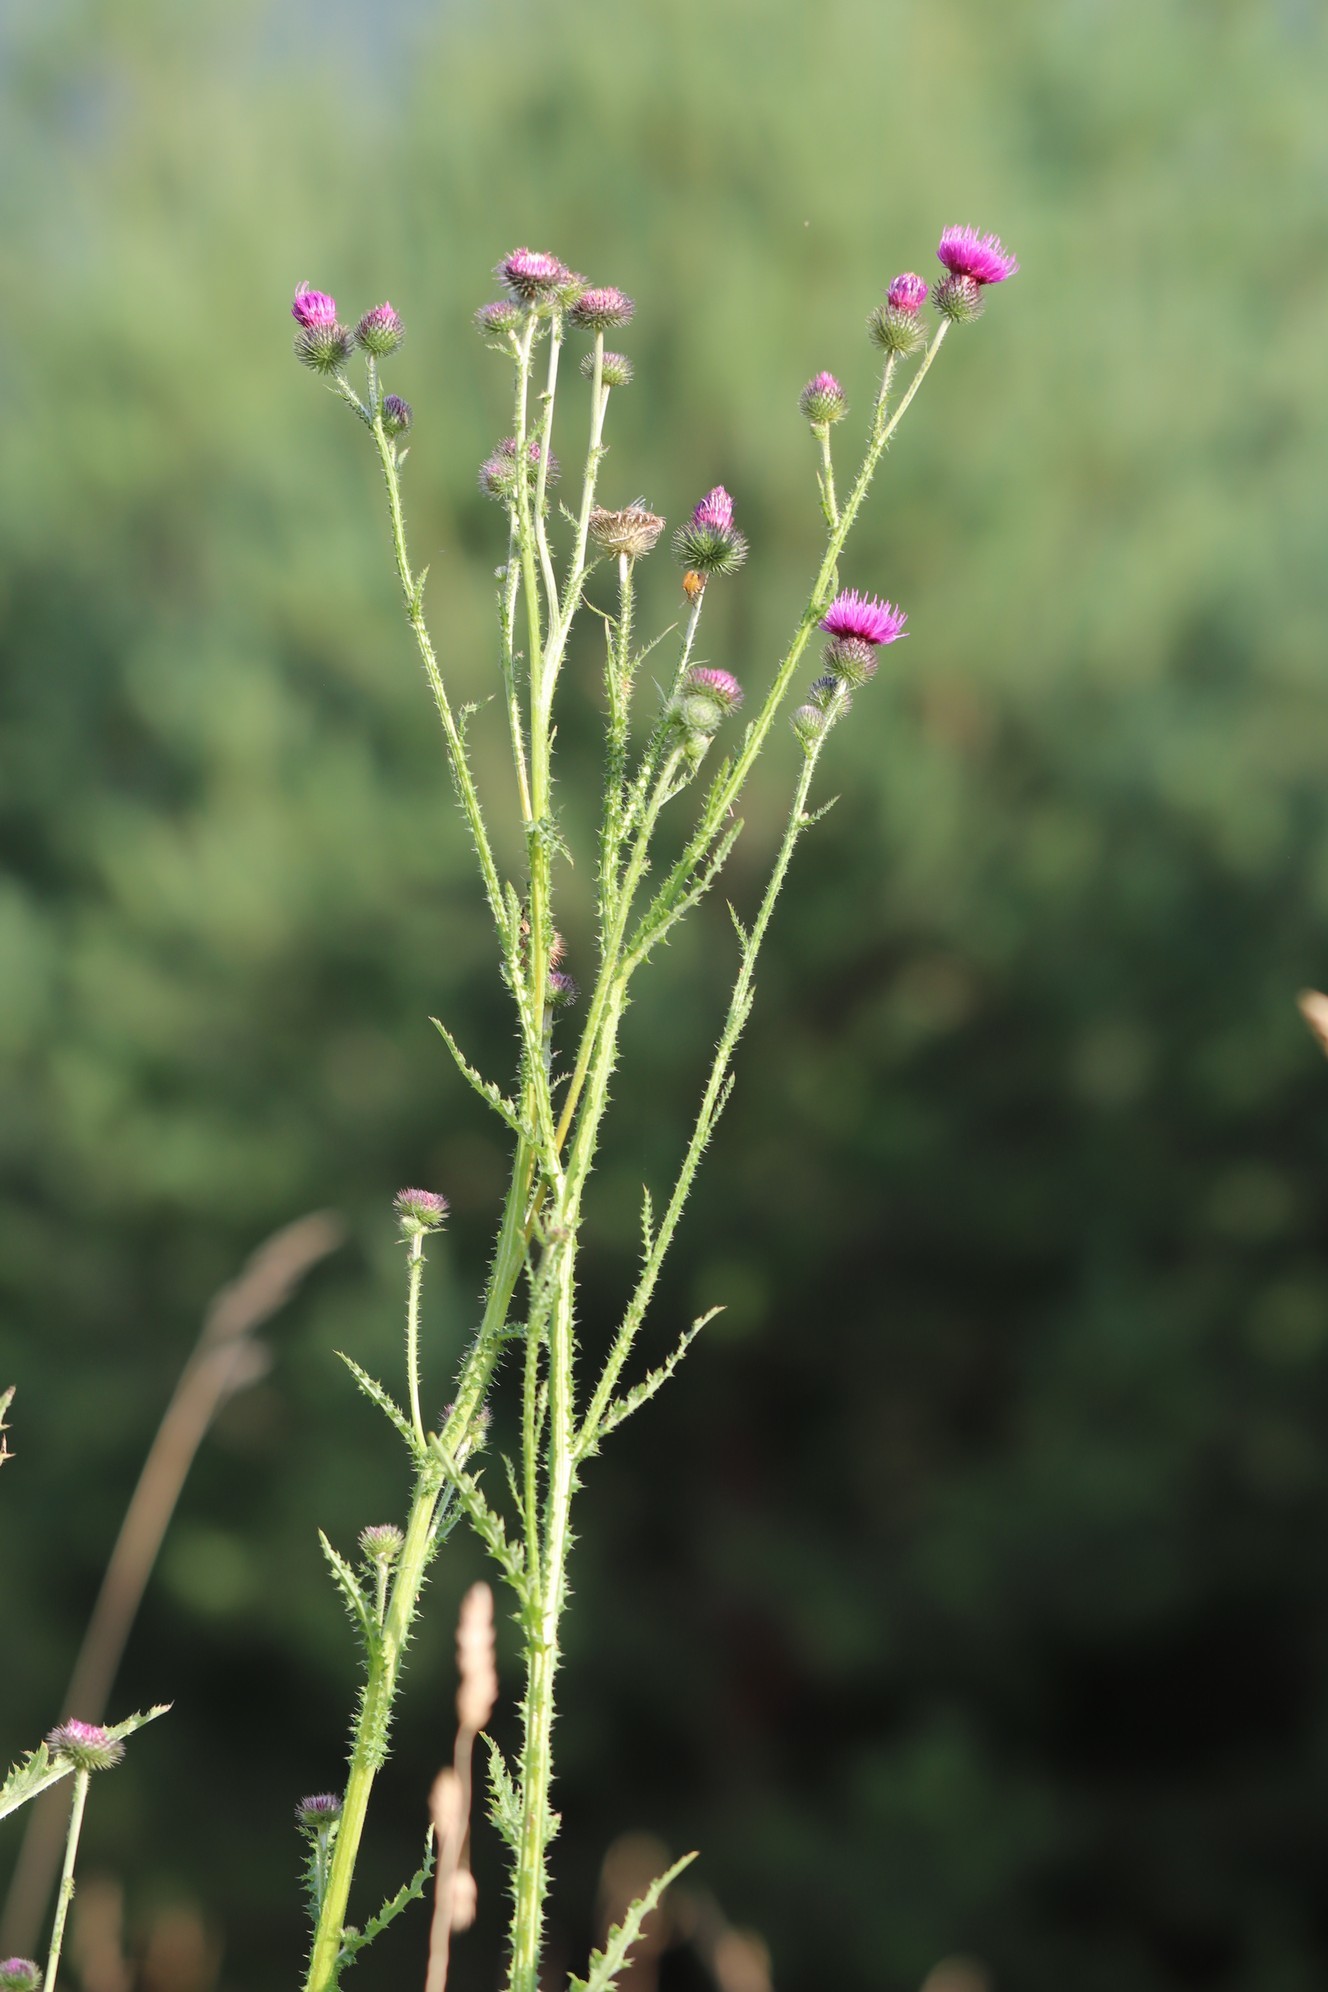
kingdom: Plantae
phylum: Tracheophyta
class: Magnoliopsida
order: Asterales
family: Asteraceae
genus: Carduus
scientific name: Carduus crispus
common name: Welted thistle
